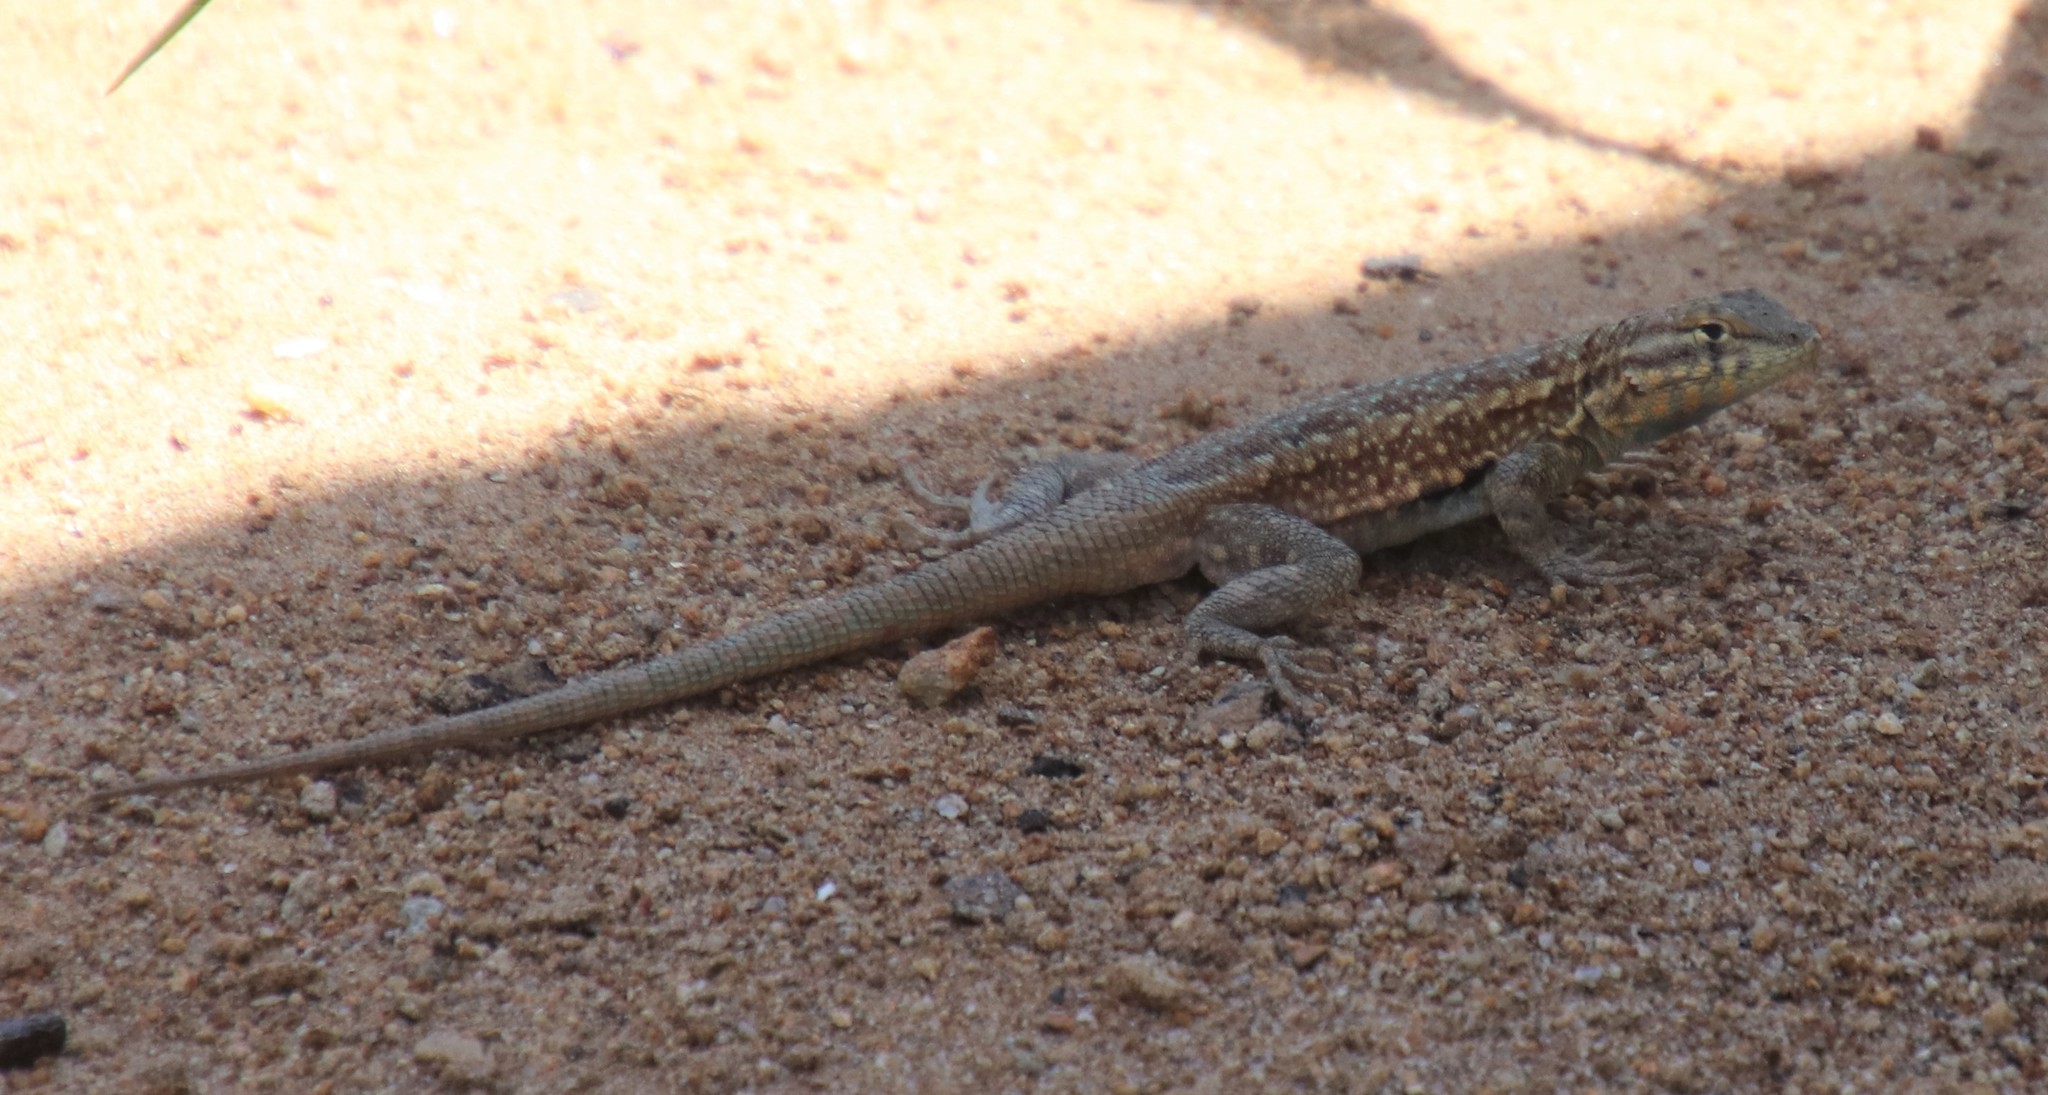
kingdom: Animalia
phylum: Chordata
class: Squamata
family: Phrynosomatidae
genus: Uta
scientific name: Uta stansburiana
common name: Side-blotched lizard
